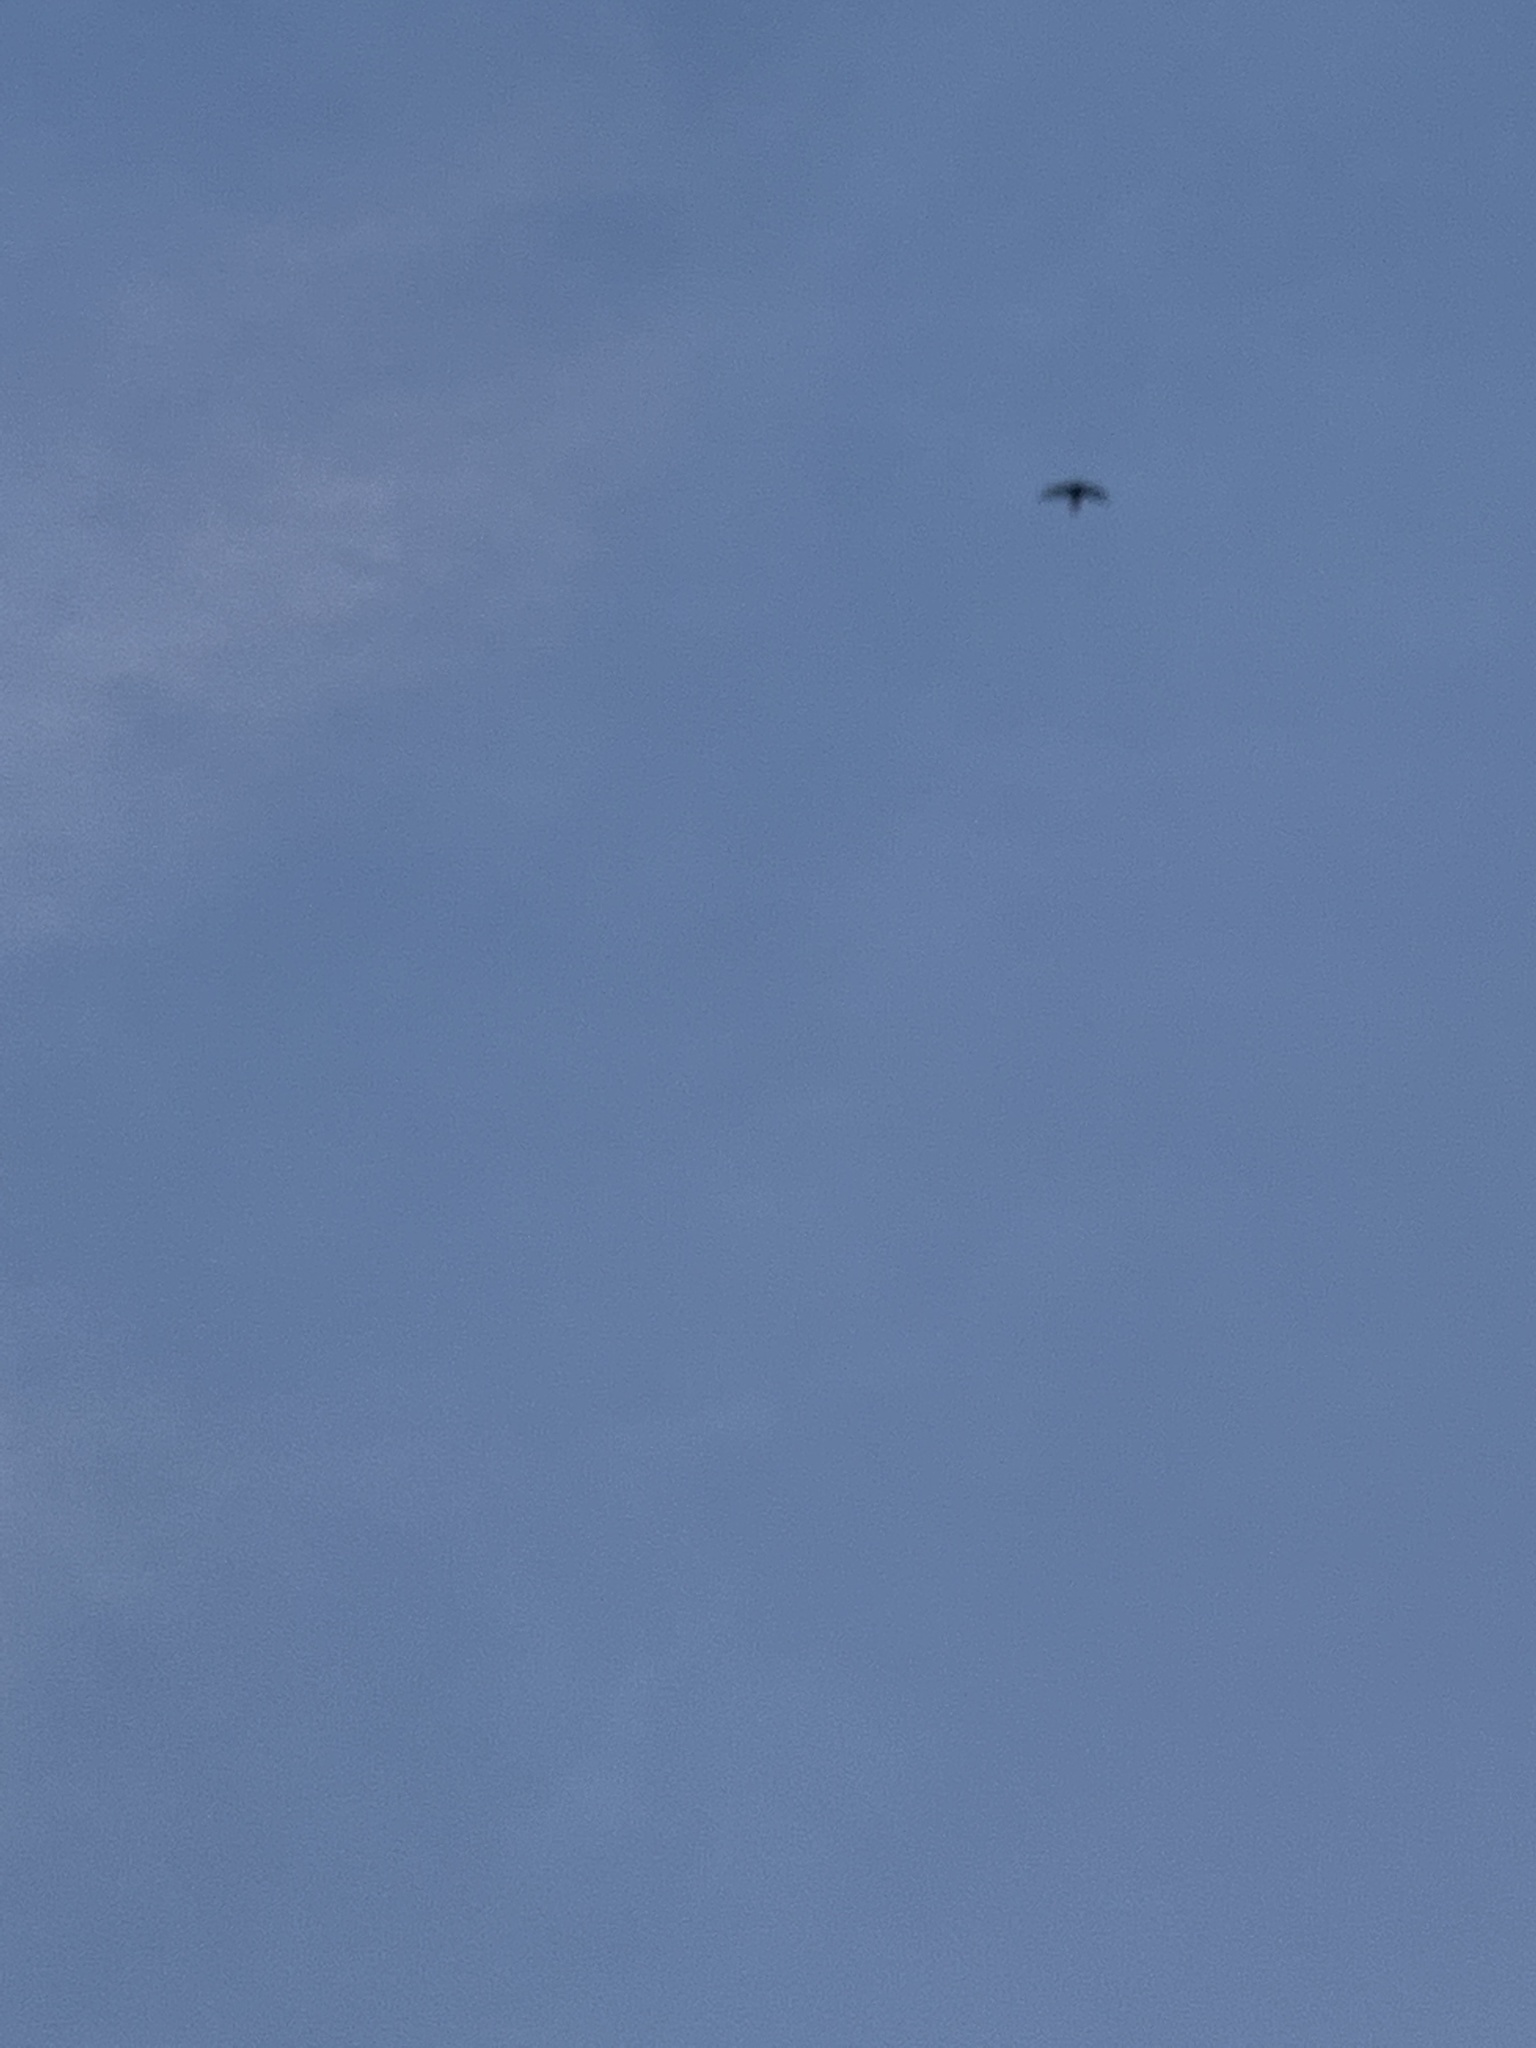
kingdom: Animalia
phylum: Chordata
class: Aves
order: Apodiformes
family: Apodidae
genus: Apus
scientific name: Apus apus
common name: Common swift
